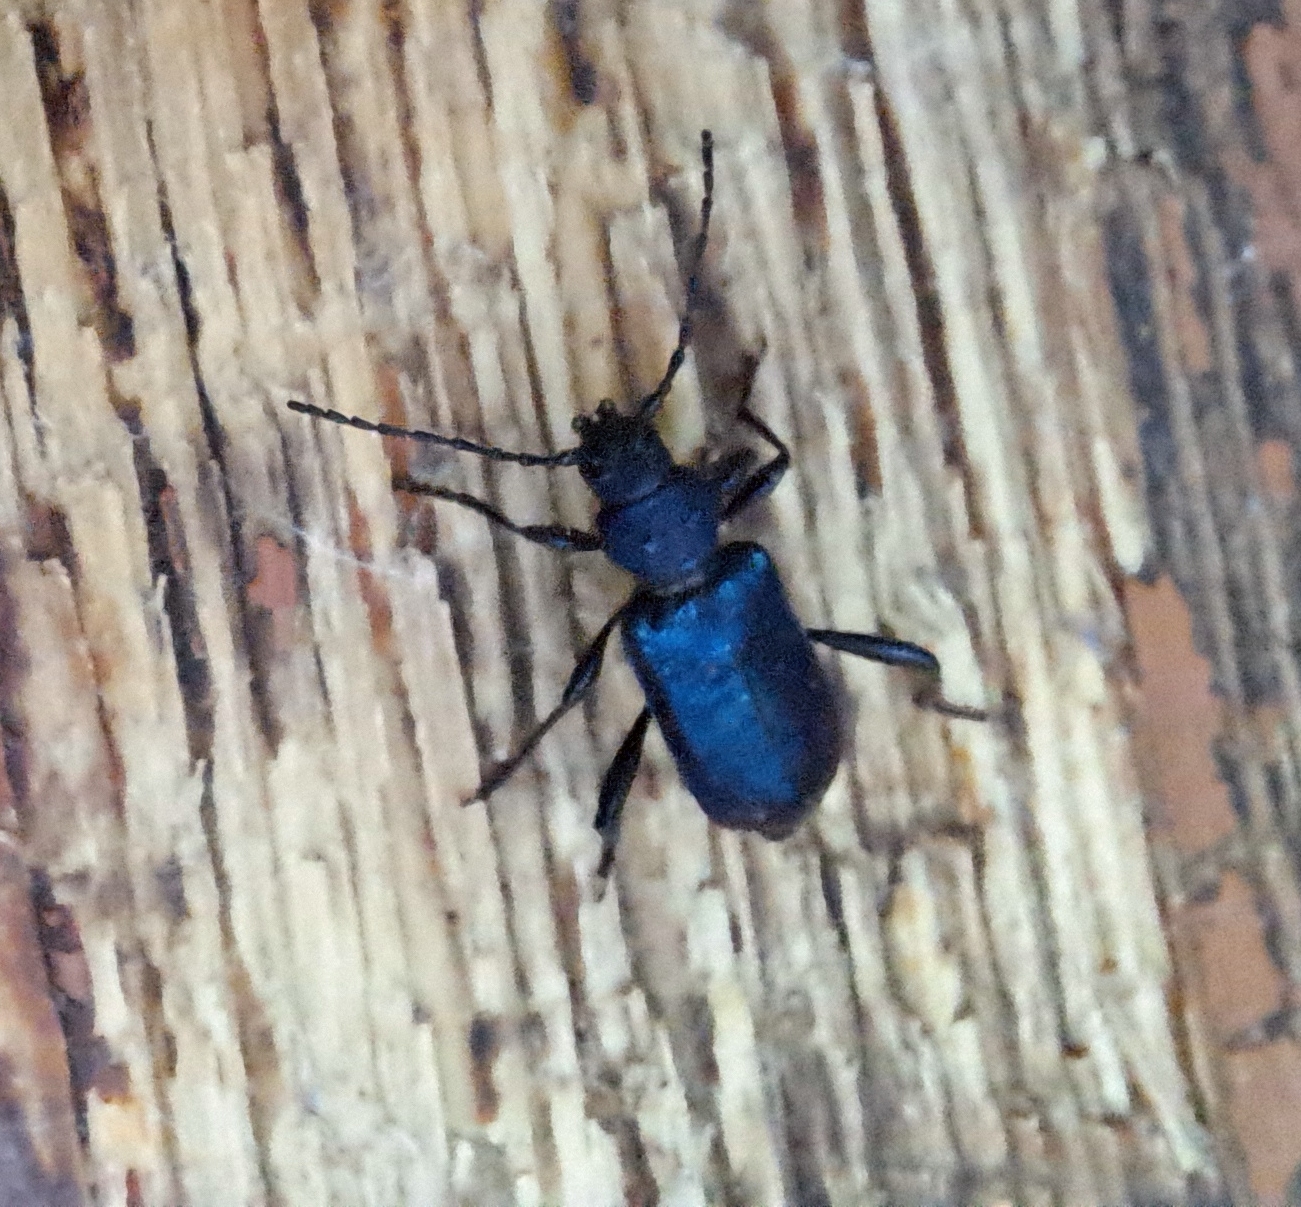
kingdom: Animalia
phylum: Arthropoda
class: Insecta
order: Coleoptera
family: Cerambycidae
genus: Callidium
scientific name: Callidium violaceum
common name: Violet tanbark beetle
